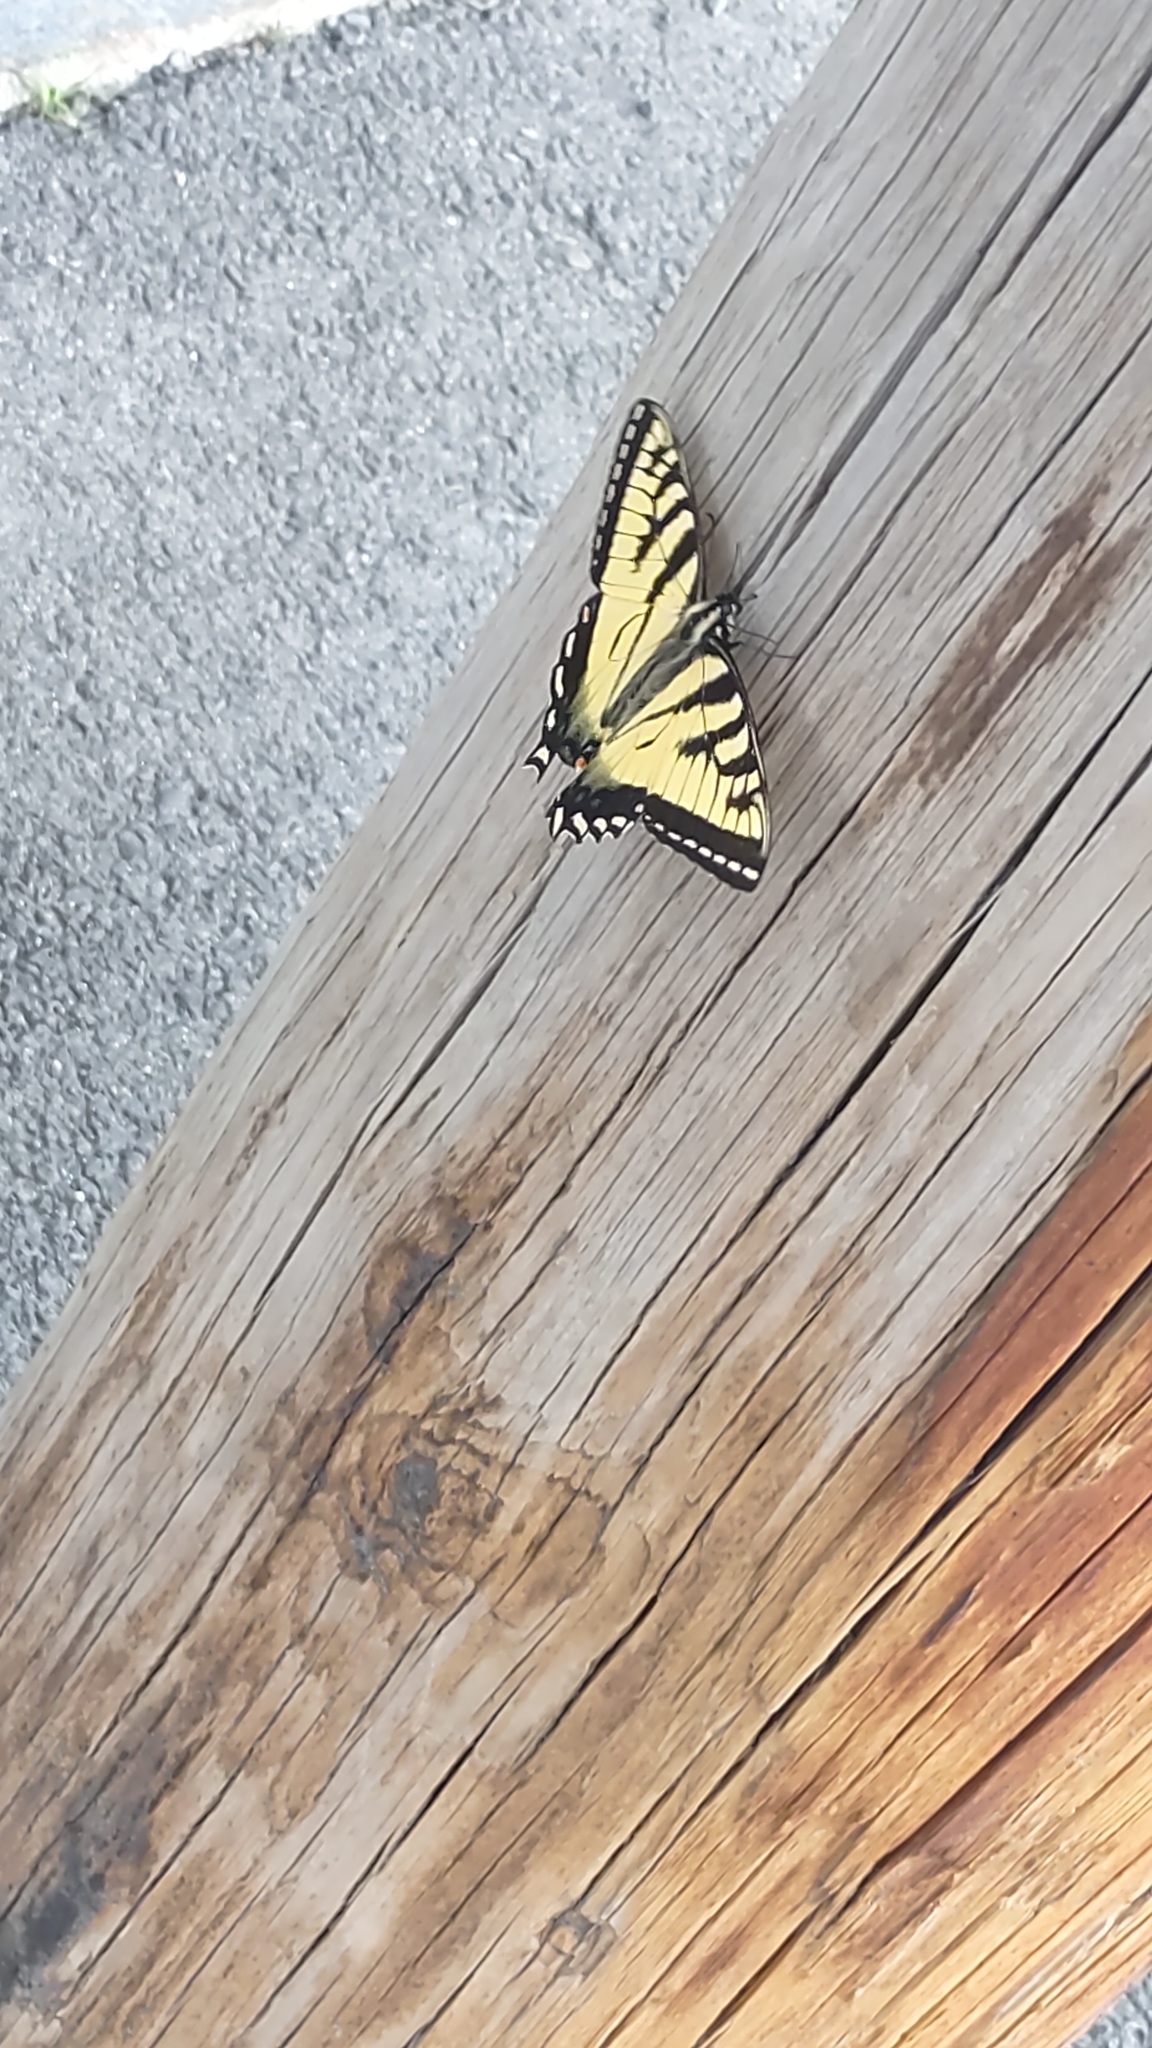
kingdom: Animalia
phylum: Arthropoda
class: Insecta
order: Lepidoptera
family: Papilionidae
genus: Papilio
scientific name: Papilio canadensis
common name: Canadian tiger swallowtail
